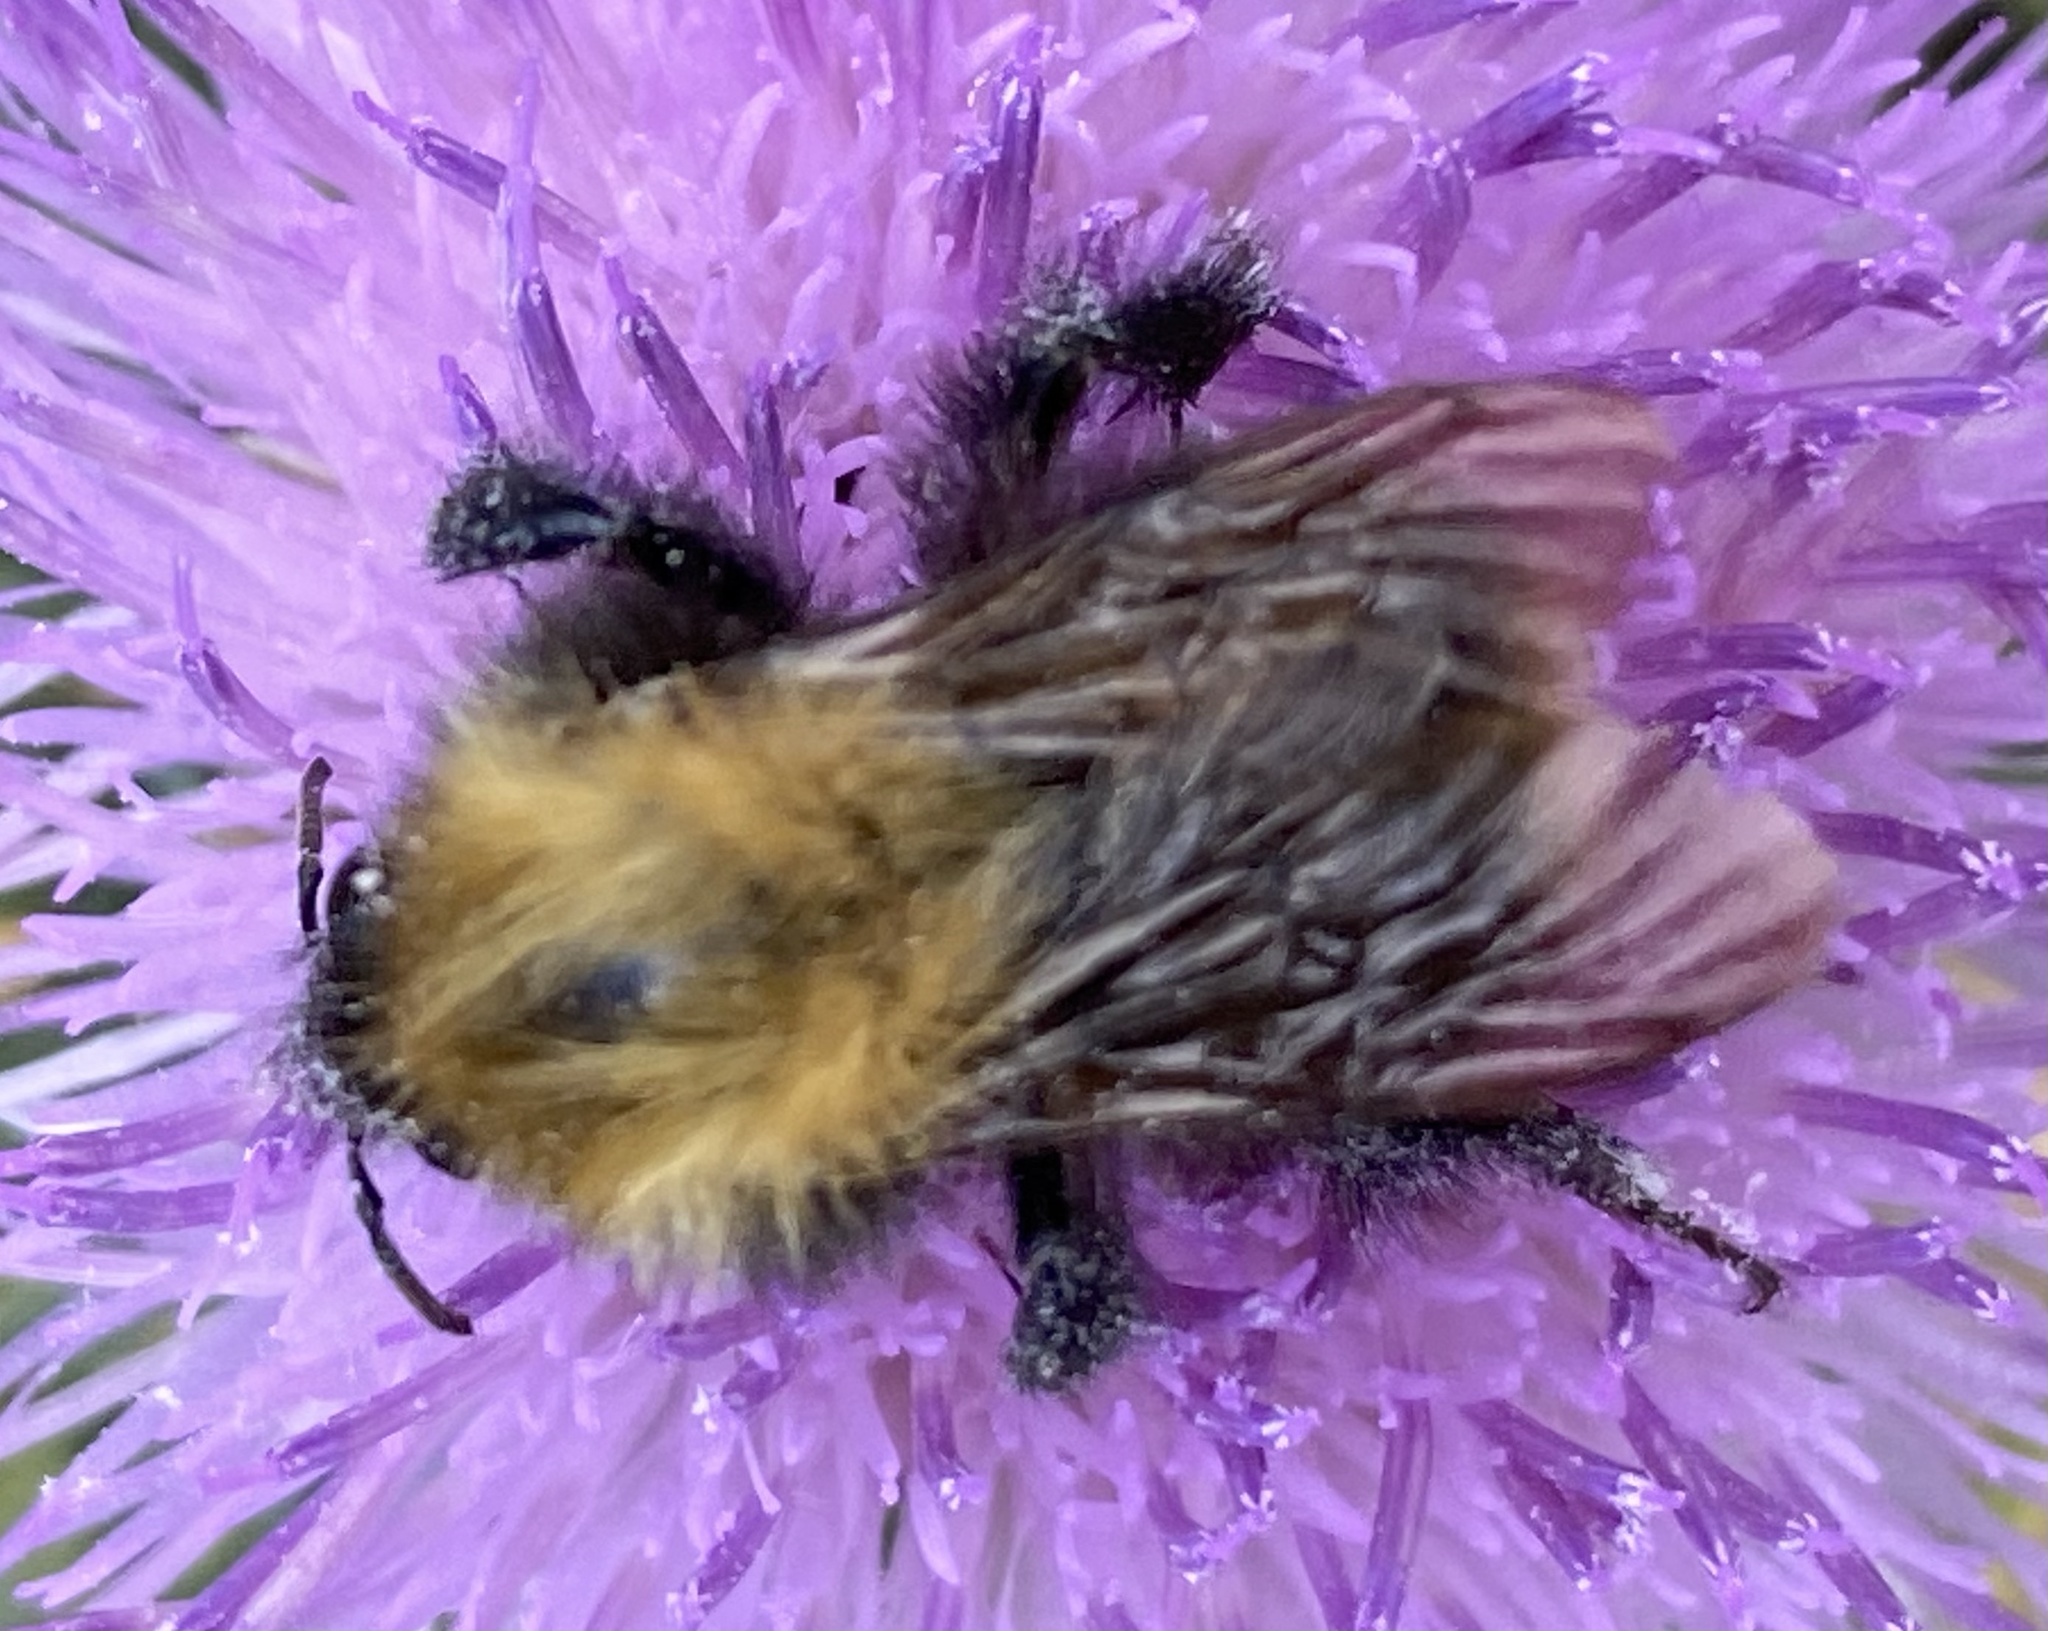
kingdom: Animalia
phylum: Arthropoda
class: Insecta
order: Hymenoptera
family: Apidae
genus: Bombus
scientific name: Bombus pascuorum
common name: Common carder bee
